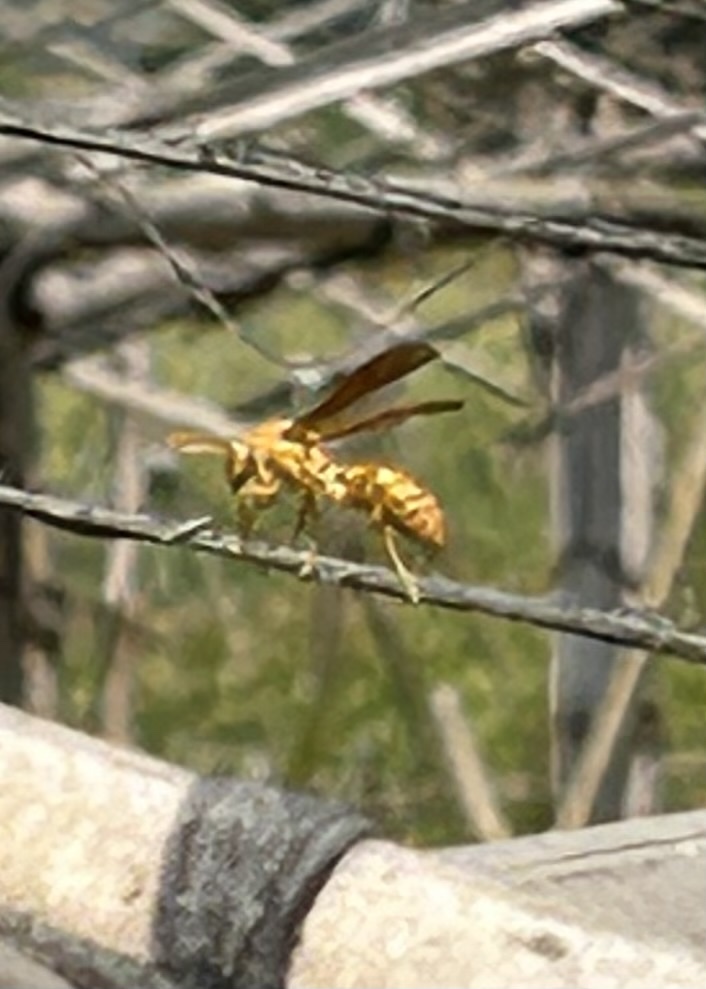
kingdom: Animalia
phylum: Arthropoda
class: Insecta
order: Hymenoptera
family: Eumenidae
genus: Polistes
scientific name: Polistes wattii
